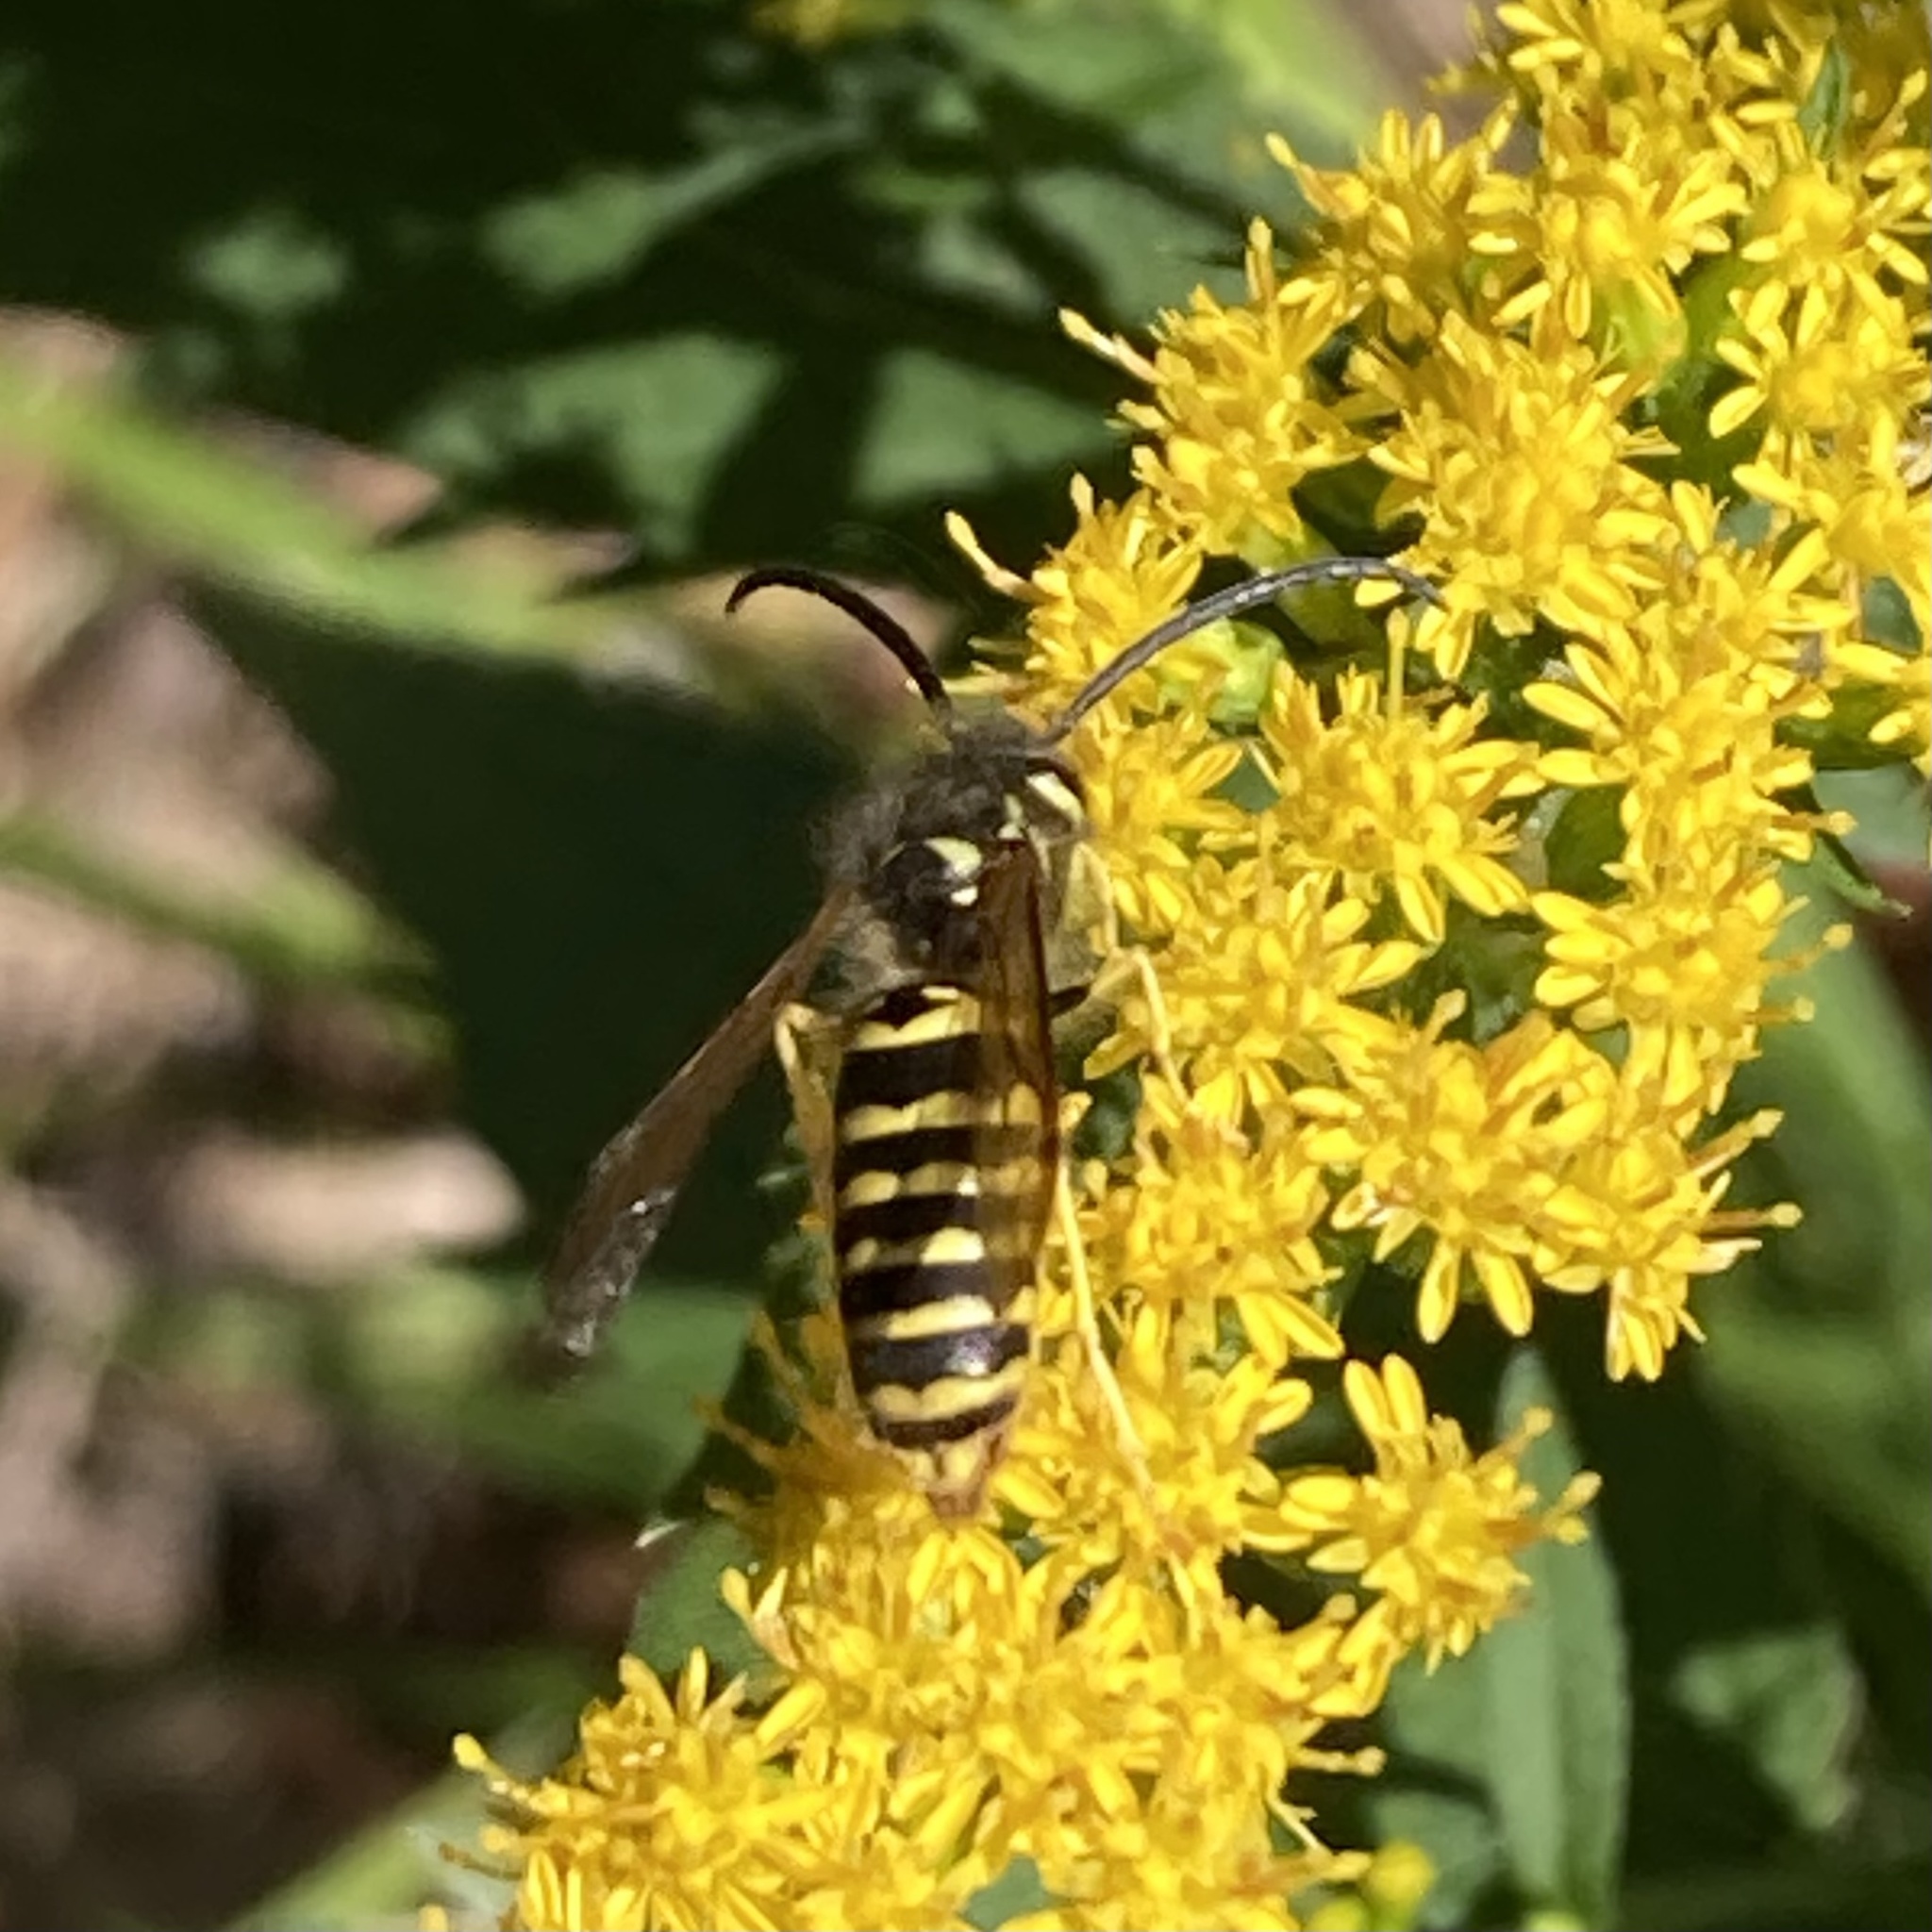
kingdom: Animalia
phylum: Arthropoda
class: Insecta
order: Hymenoptera
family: Vespidae
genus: Vespula
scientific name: Vespula maculifrons
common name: Eastern yellowjacket
